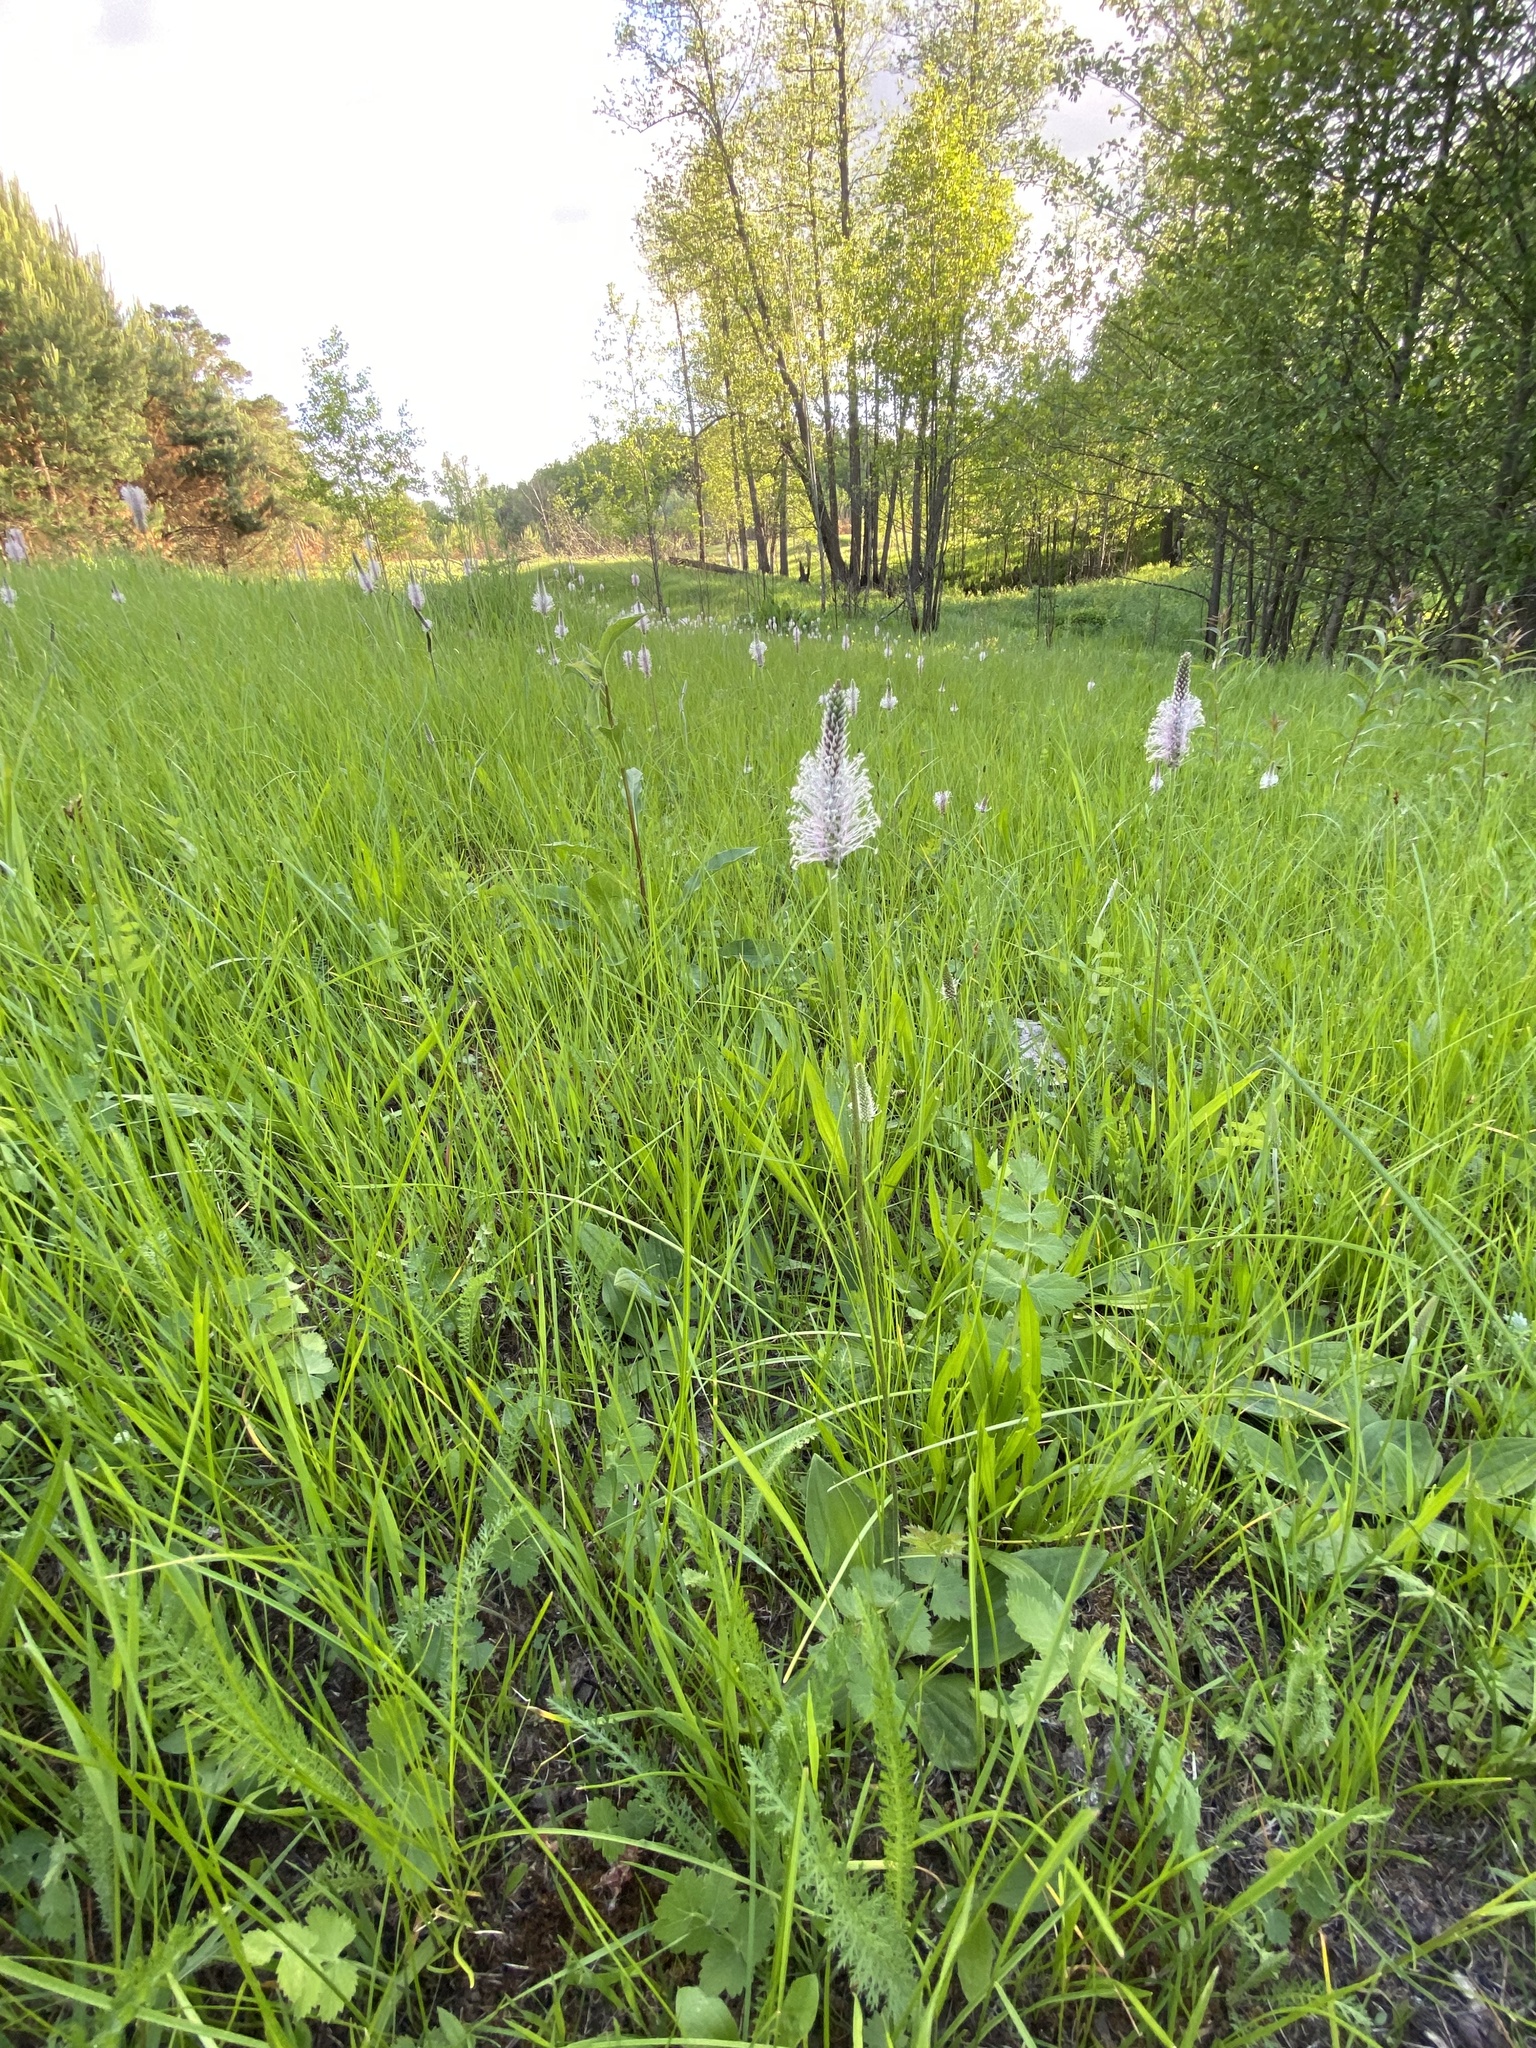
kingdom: Plantae
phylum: Tracheophyta
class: Magnoliopsida
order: Lamiales
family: Plantaginaceae
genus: Plantago
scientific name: Plantago media
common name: Hoary plantain
